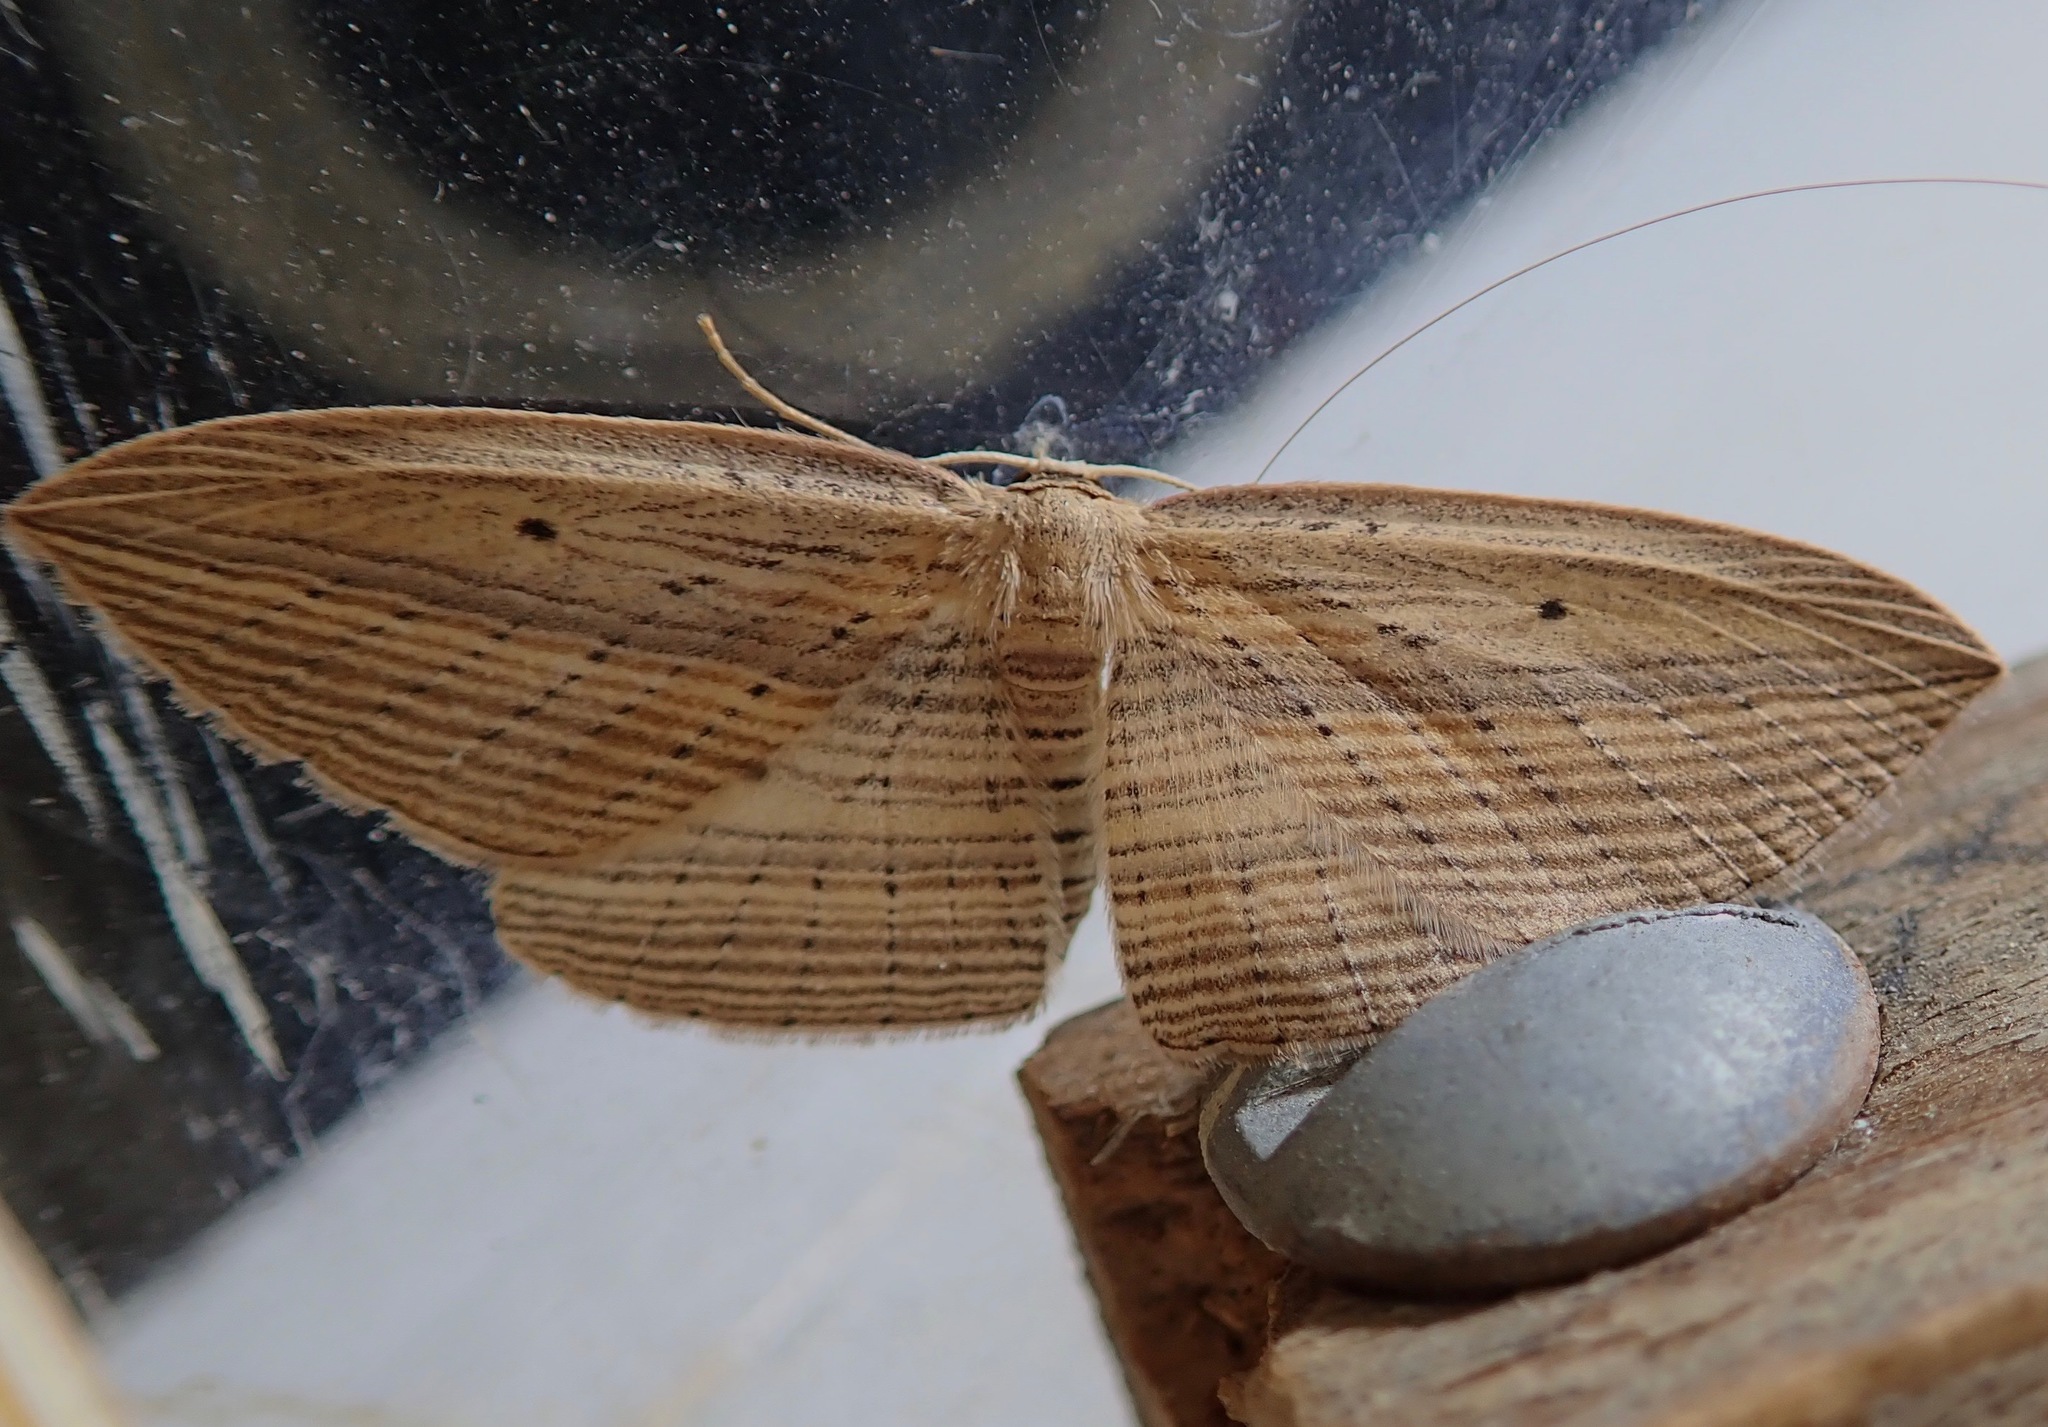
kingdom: Animalia
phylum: Arthropoda
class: Insecta
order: Lepidoptera
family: Geometridae
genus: Epiphryne
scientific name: Epiphryne verriculata
